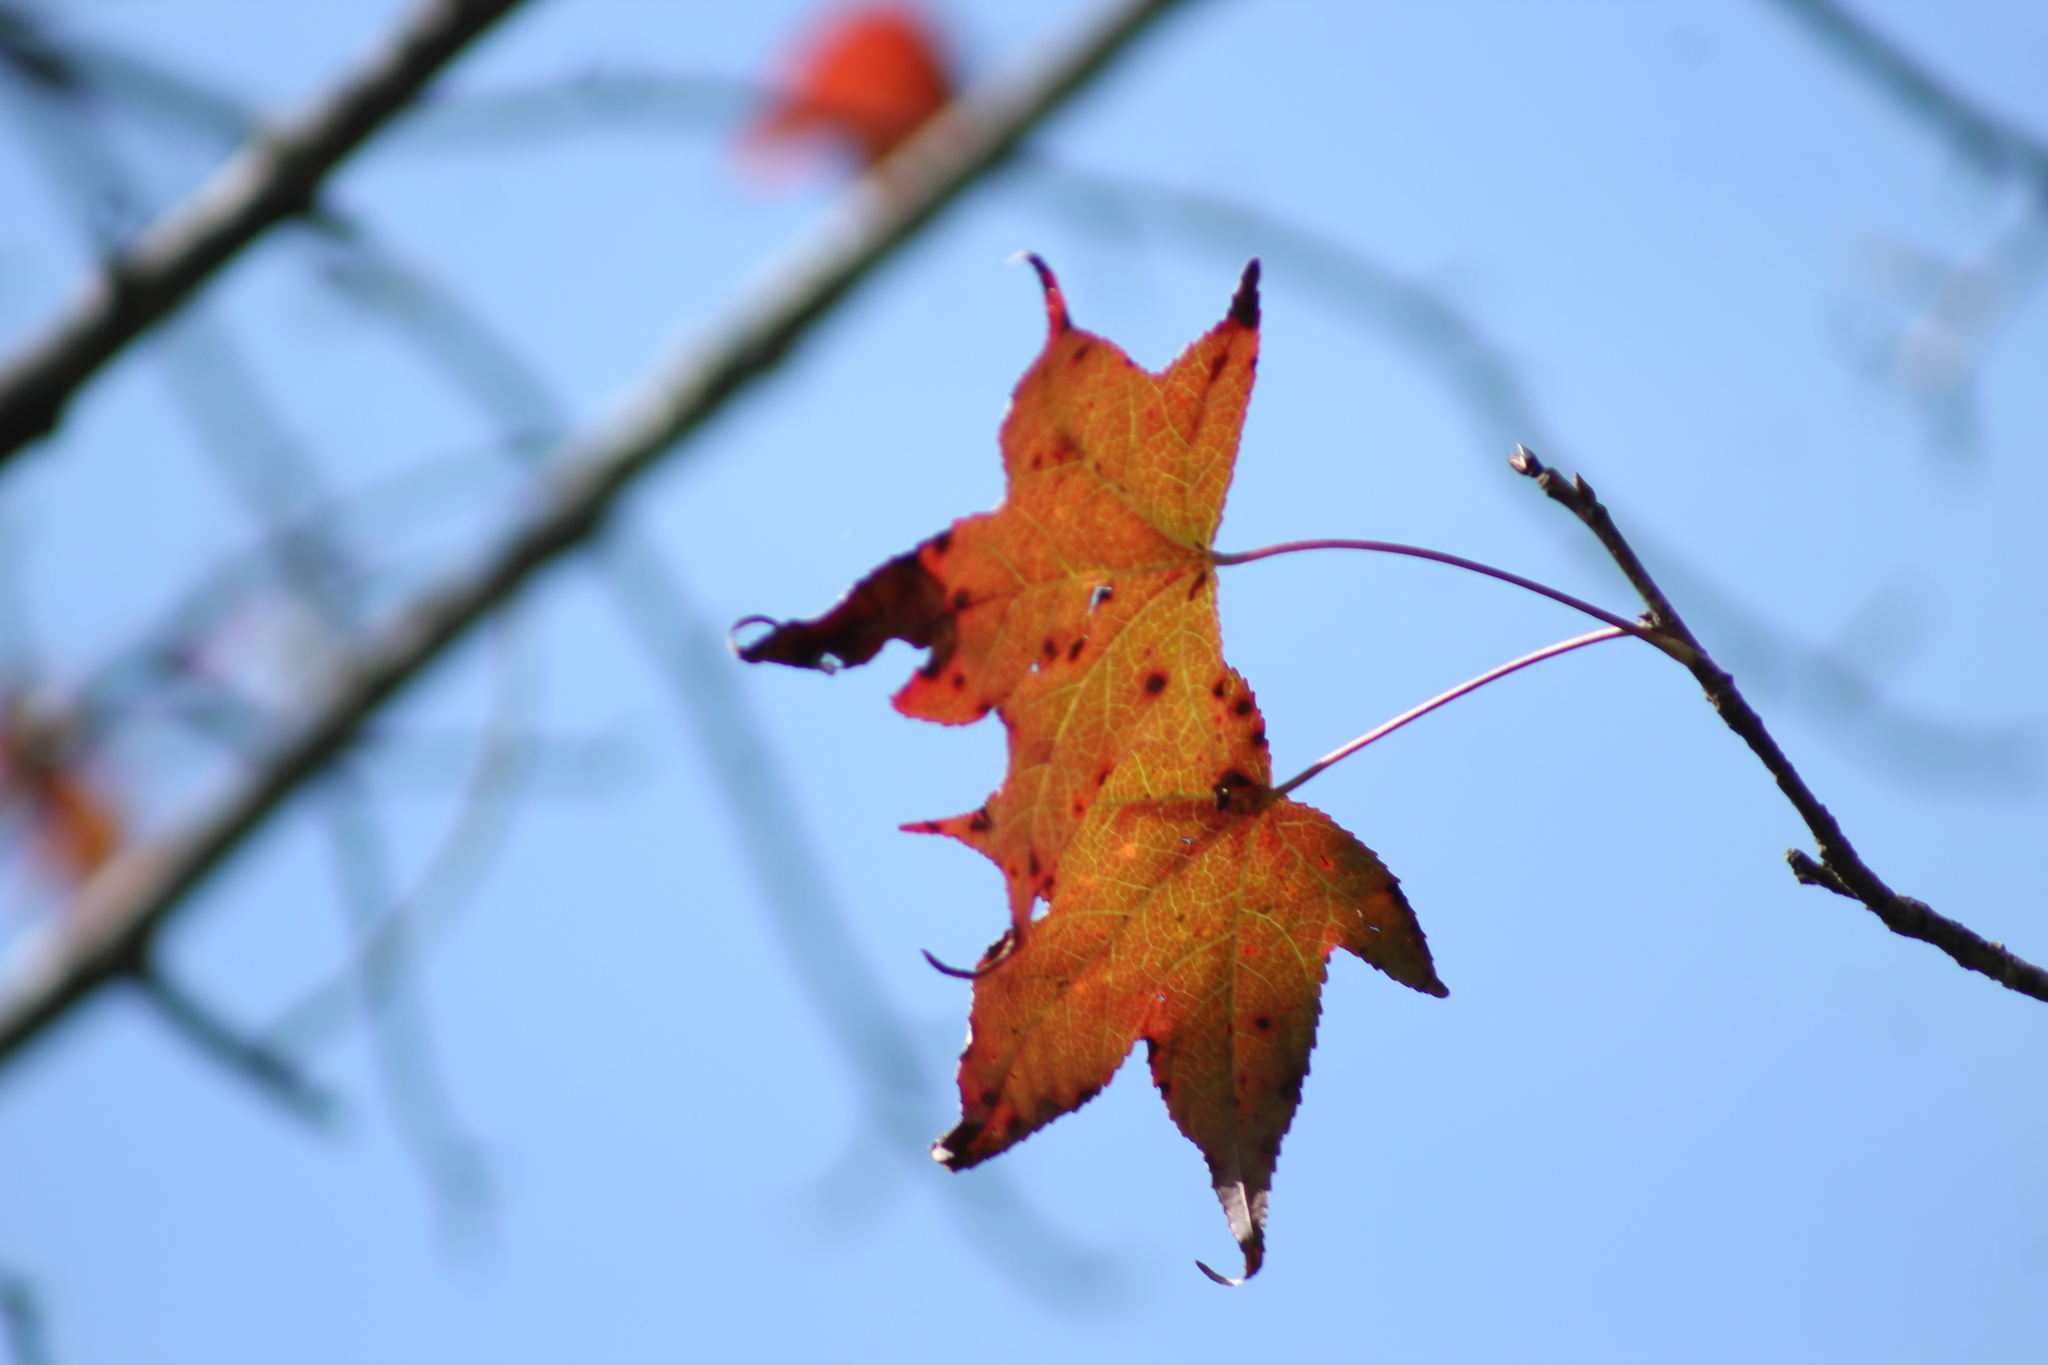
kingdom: Plantae
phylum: Tracheophyta
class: Magnoliopsida
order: Saxifragales
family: Altingiaceae
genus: Liquidambar
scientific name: Liquidambar styraciflua
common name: Sweet gum
